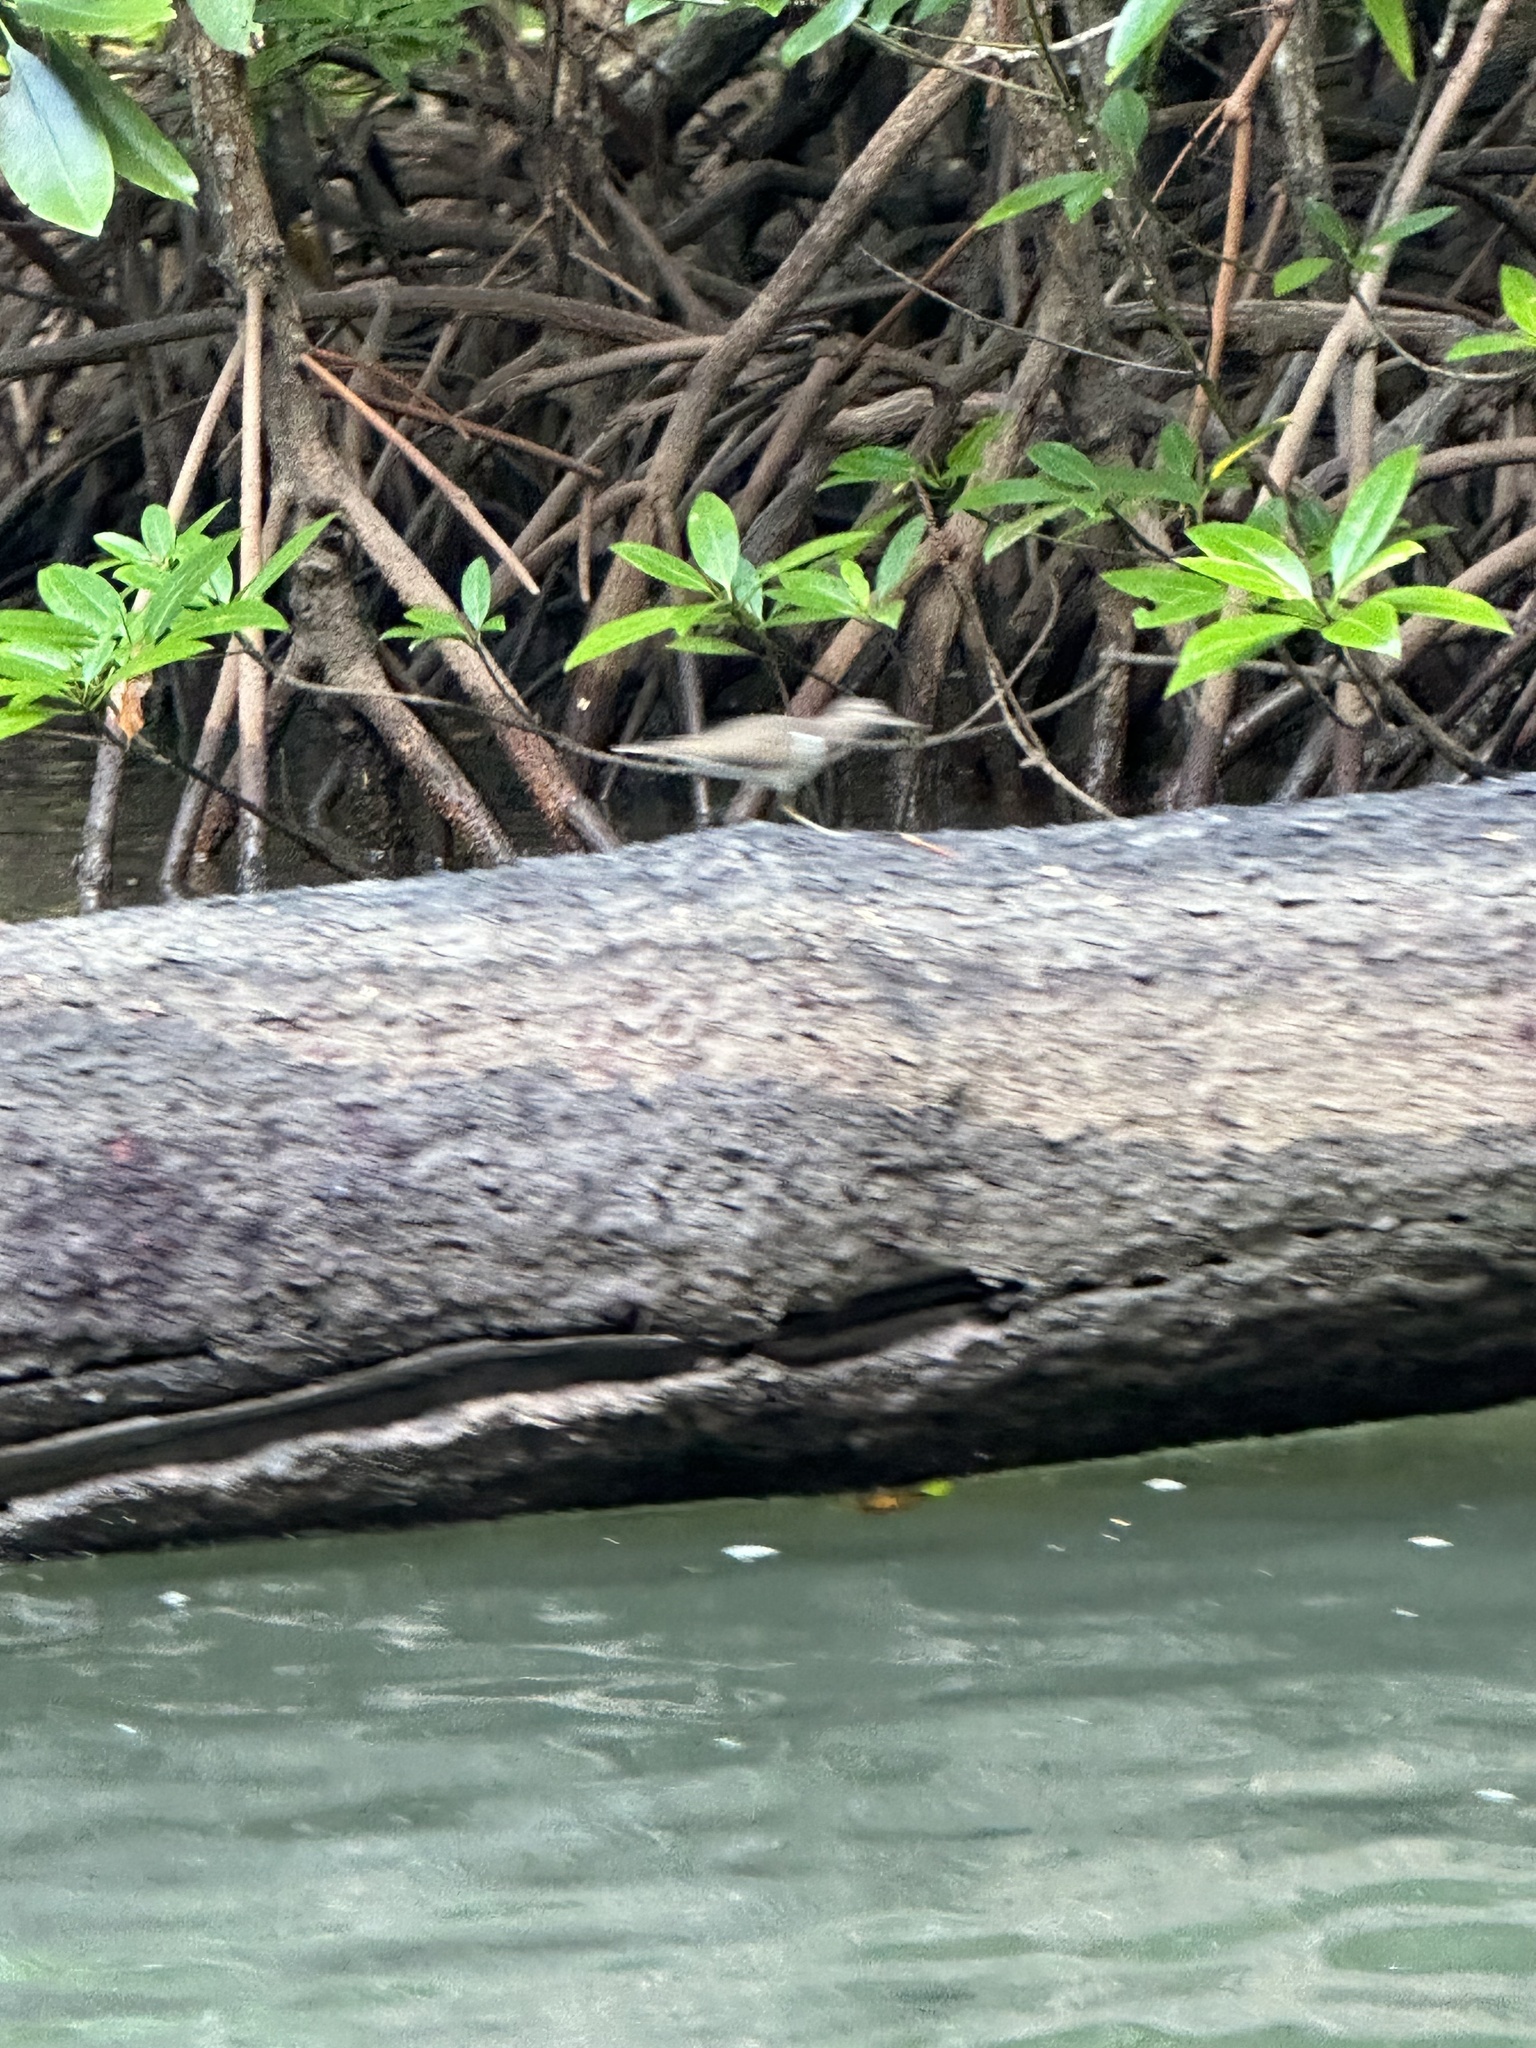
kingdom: Animalia
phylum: Chordata
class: Aves
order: Charadriiformes
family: Scolopacidae
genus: Actitis
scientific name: Actitis hypoleucos
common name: Common sandpiper
